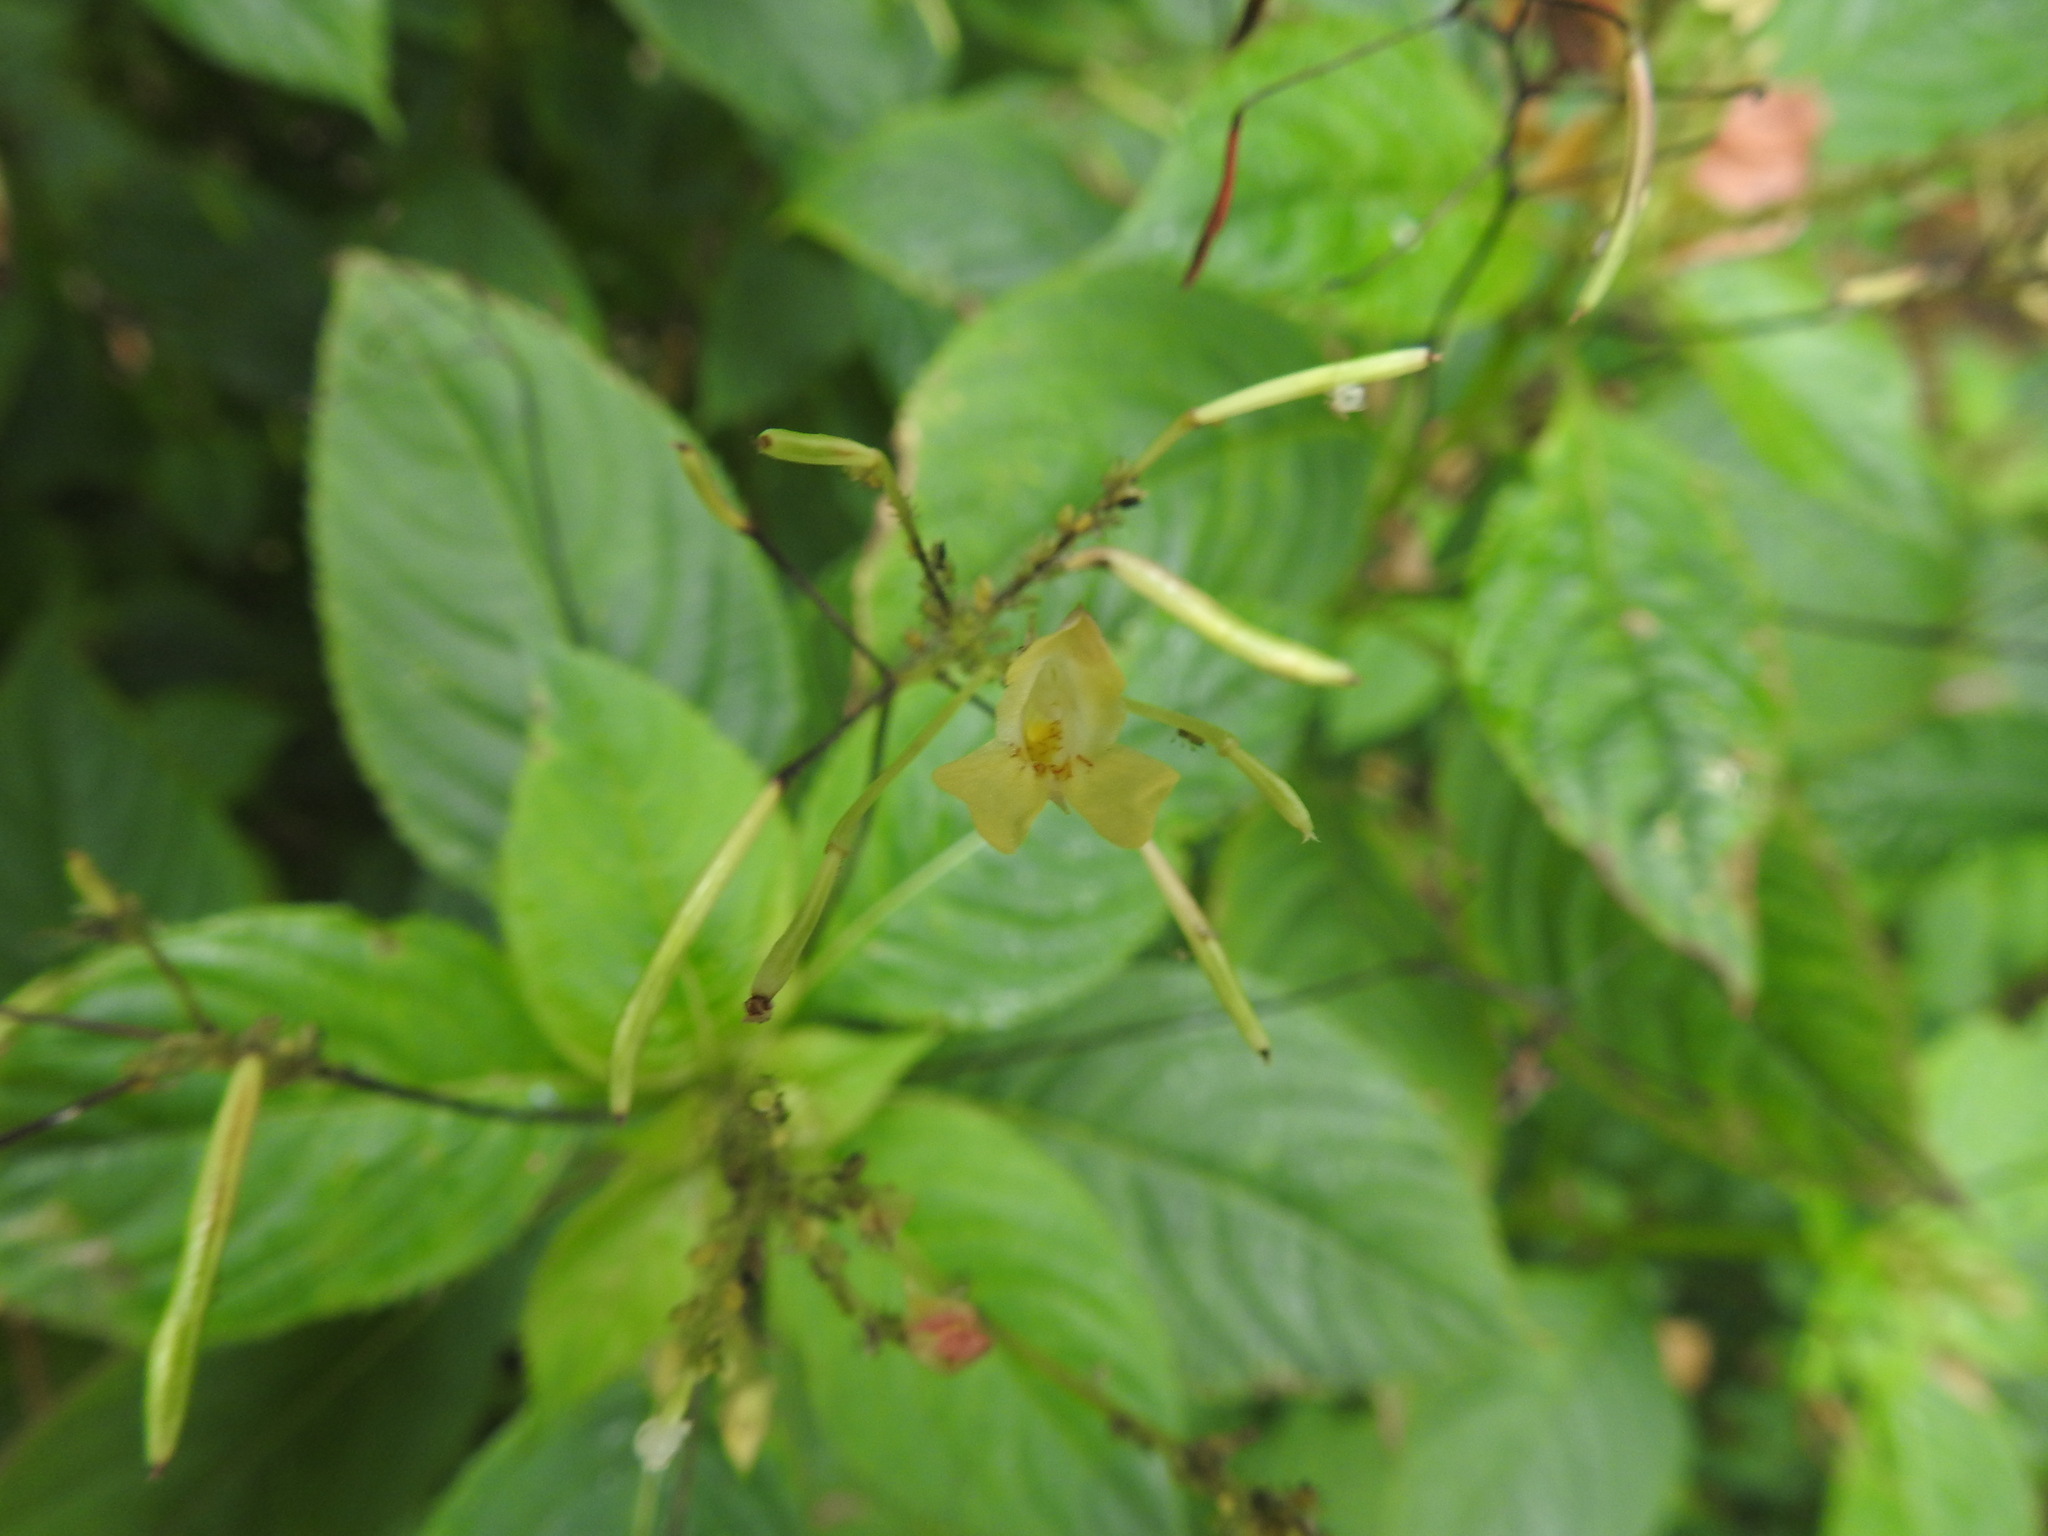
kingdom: Plantae
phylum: Tracheophyta
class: Magnoliopsida
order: Ericales
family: Balsaminaceae
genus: Impatiens
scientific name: Impatiens parviflora
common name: Small balsam
